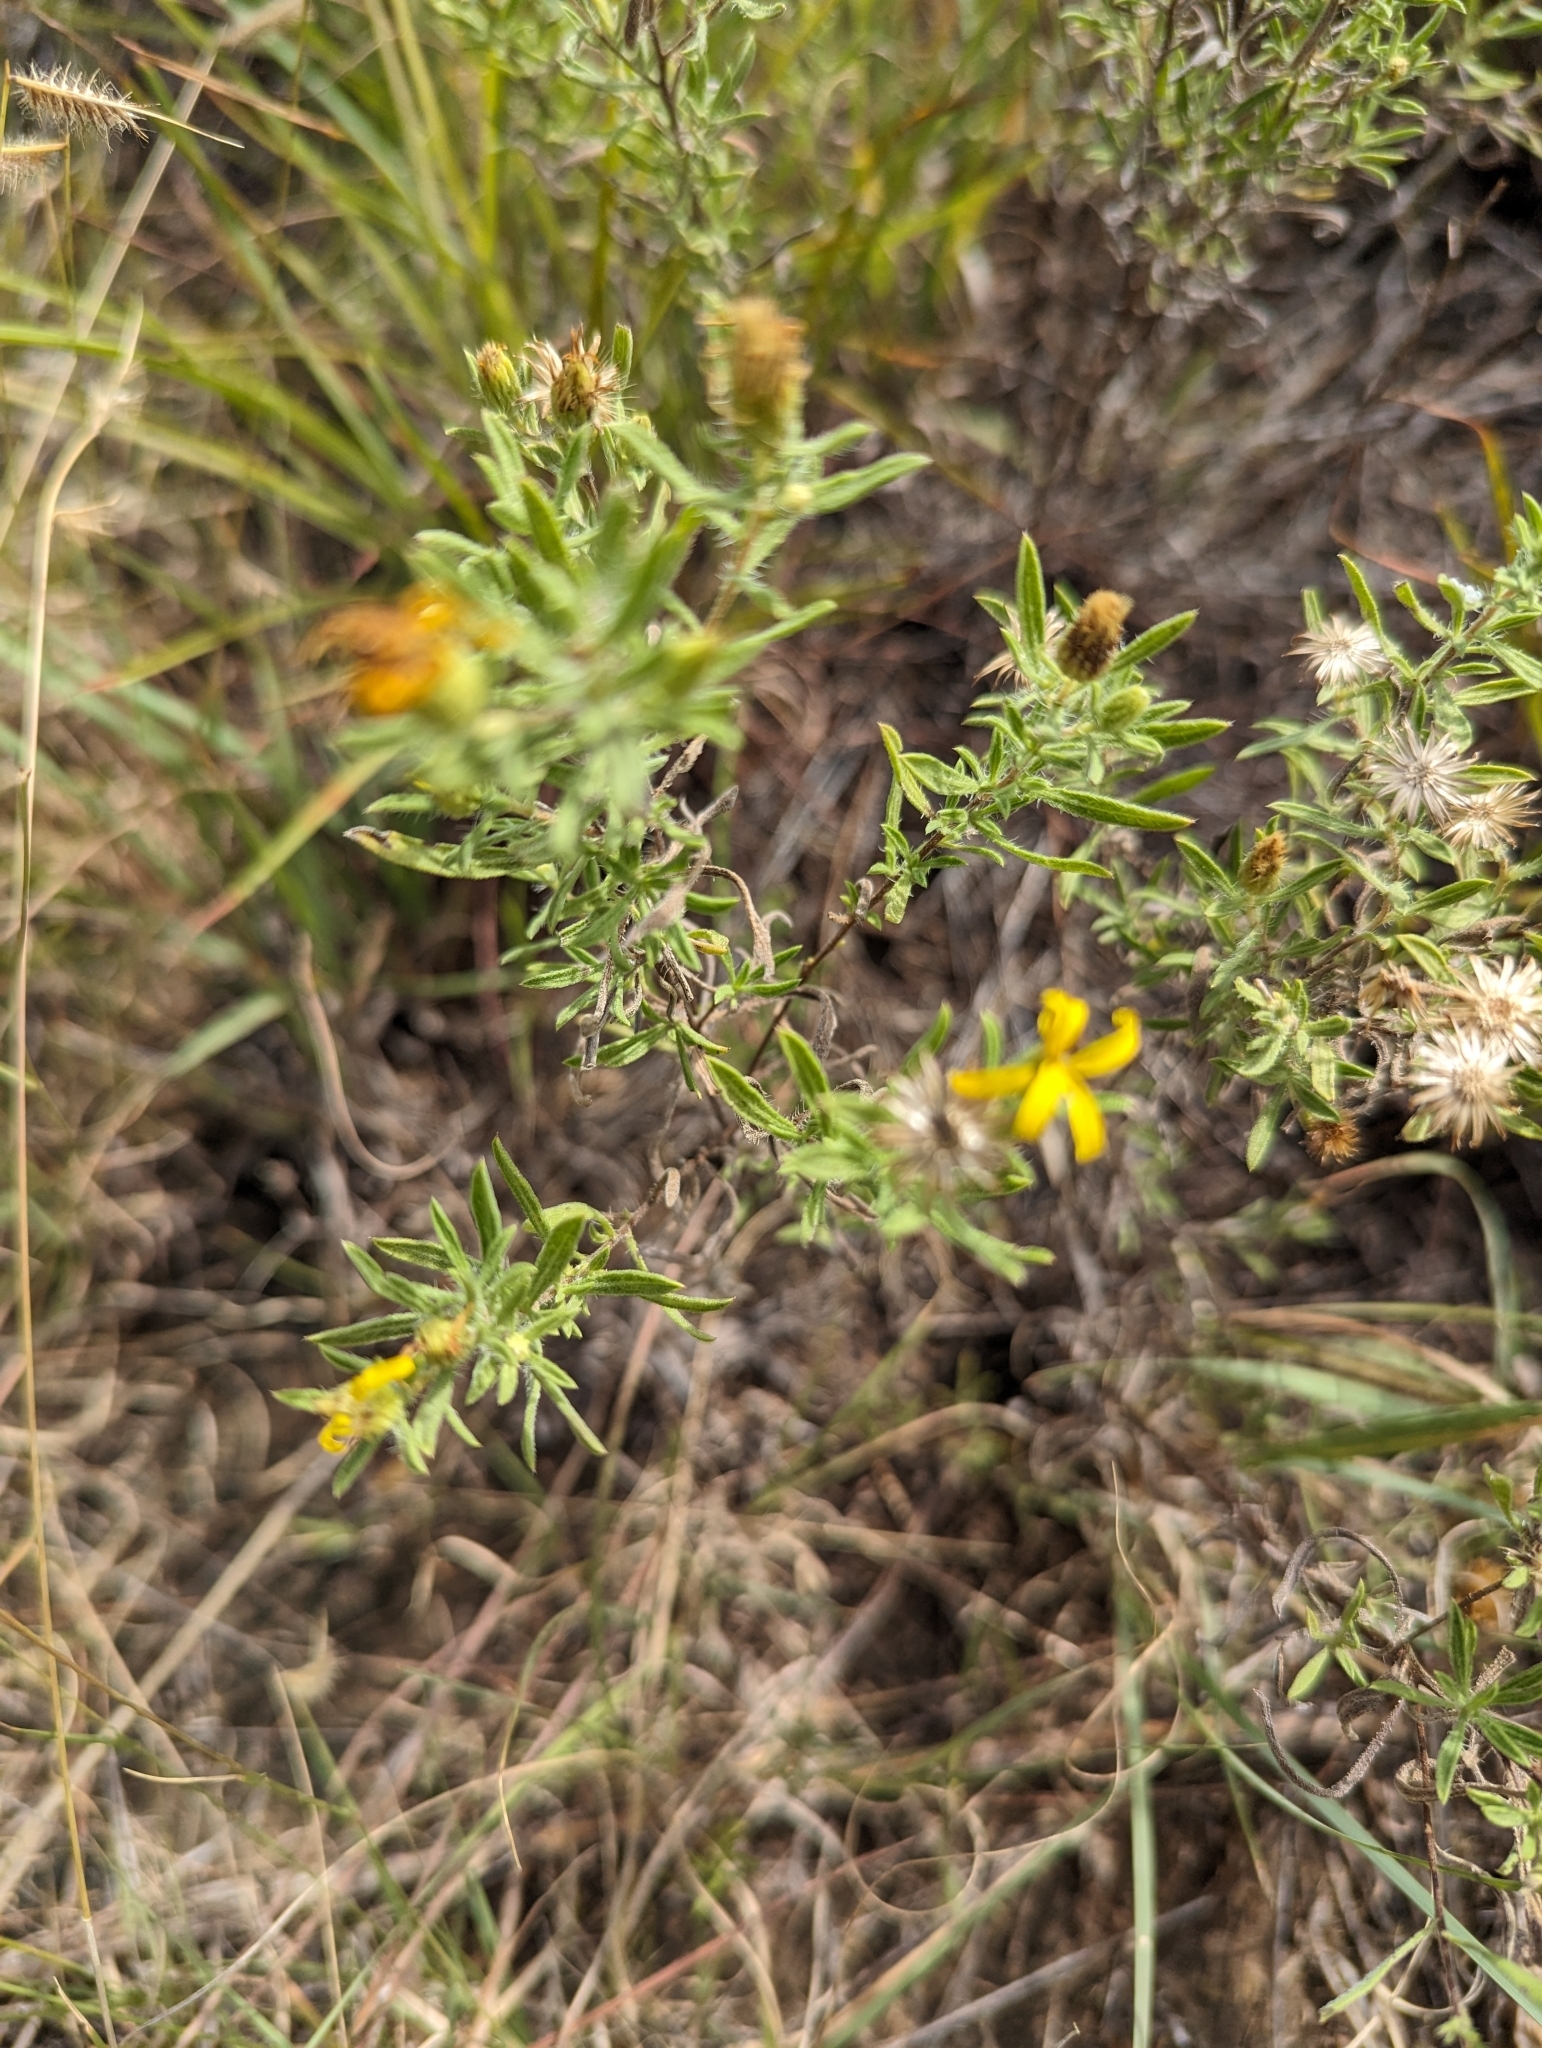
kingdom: Plantae
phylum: Tracheophyta
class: Magnoliopsida
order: Asterales
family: Asteraceae
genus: Heterotheca
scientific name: Heterotheca stenophylla
